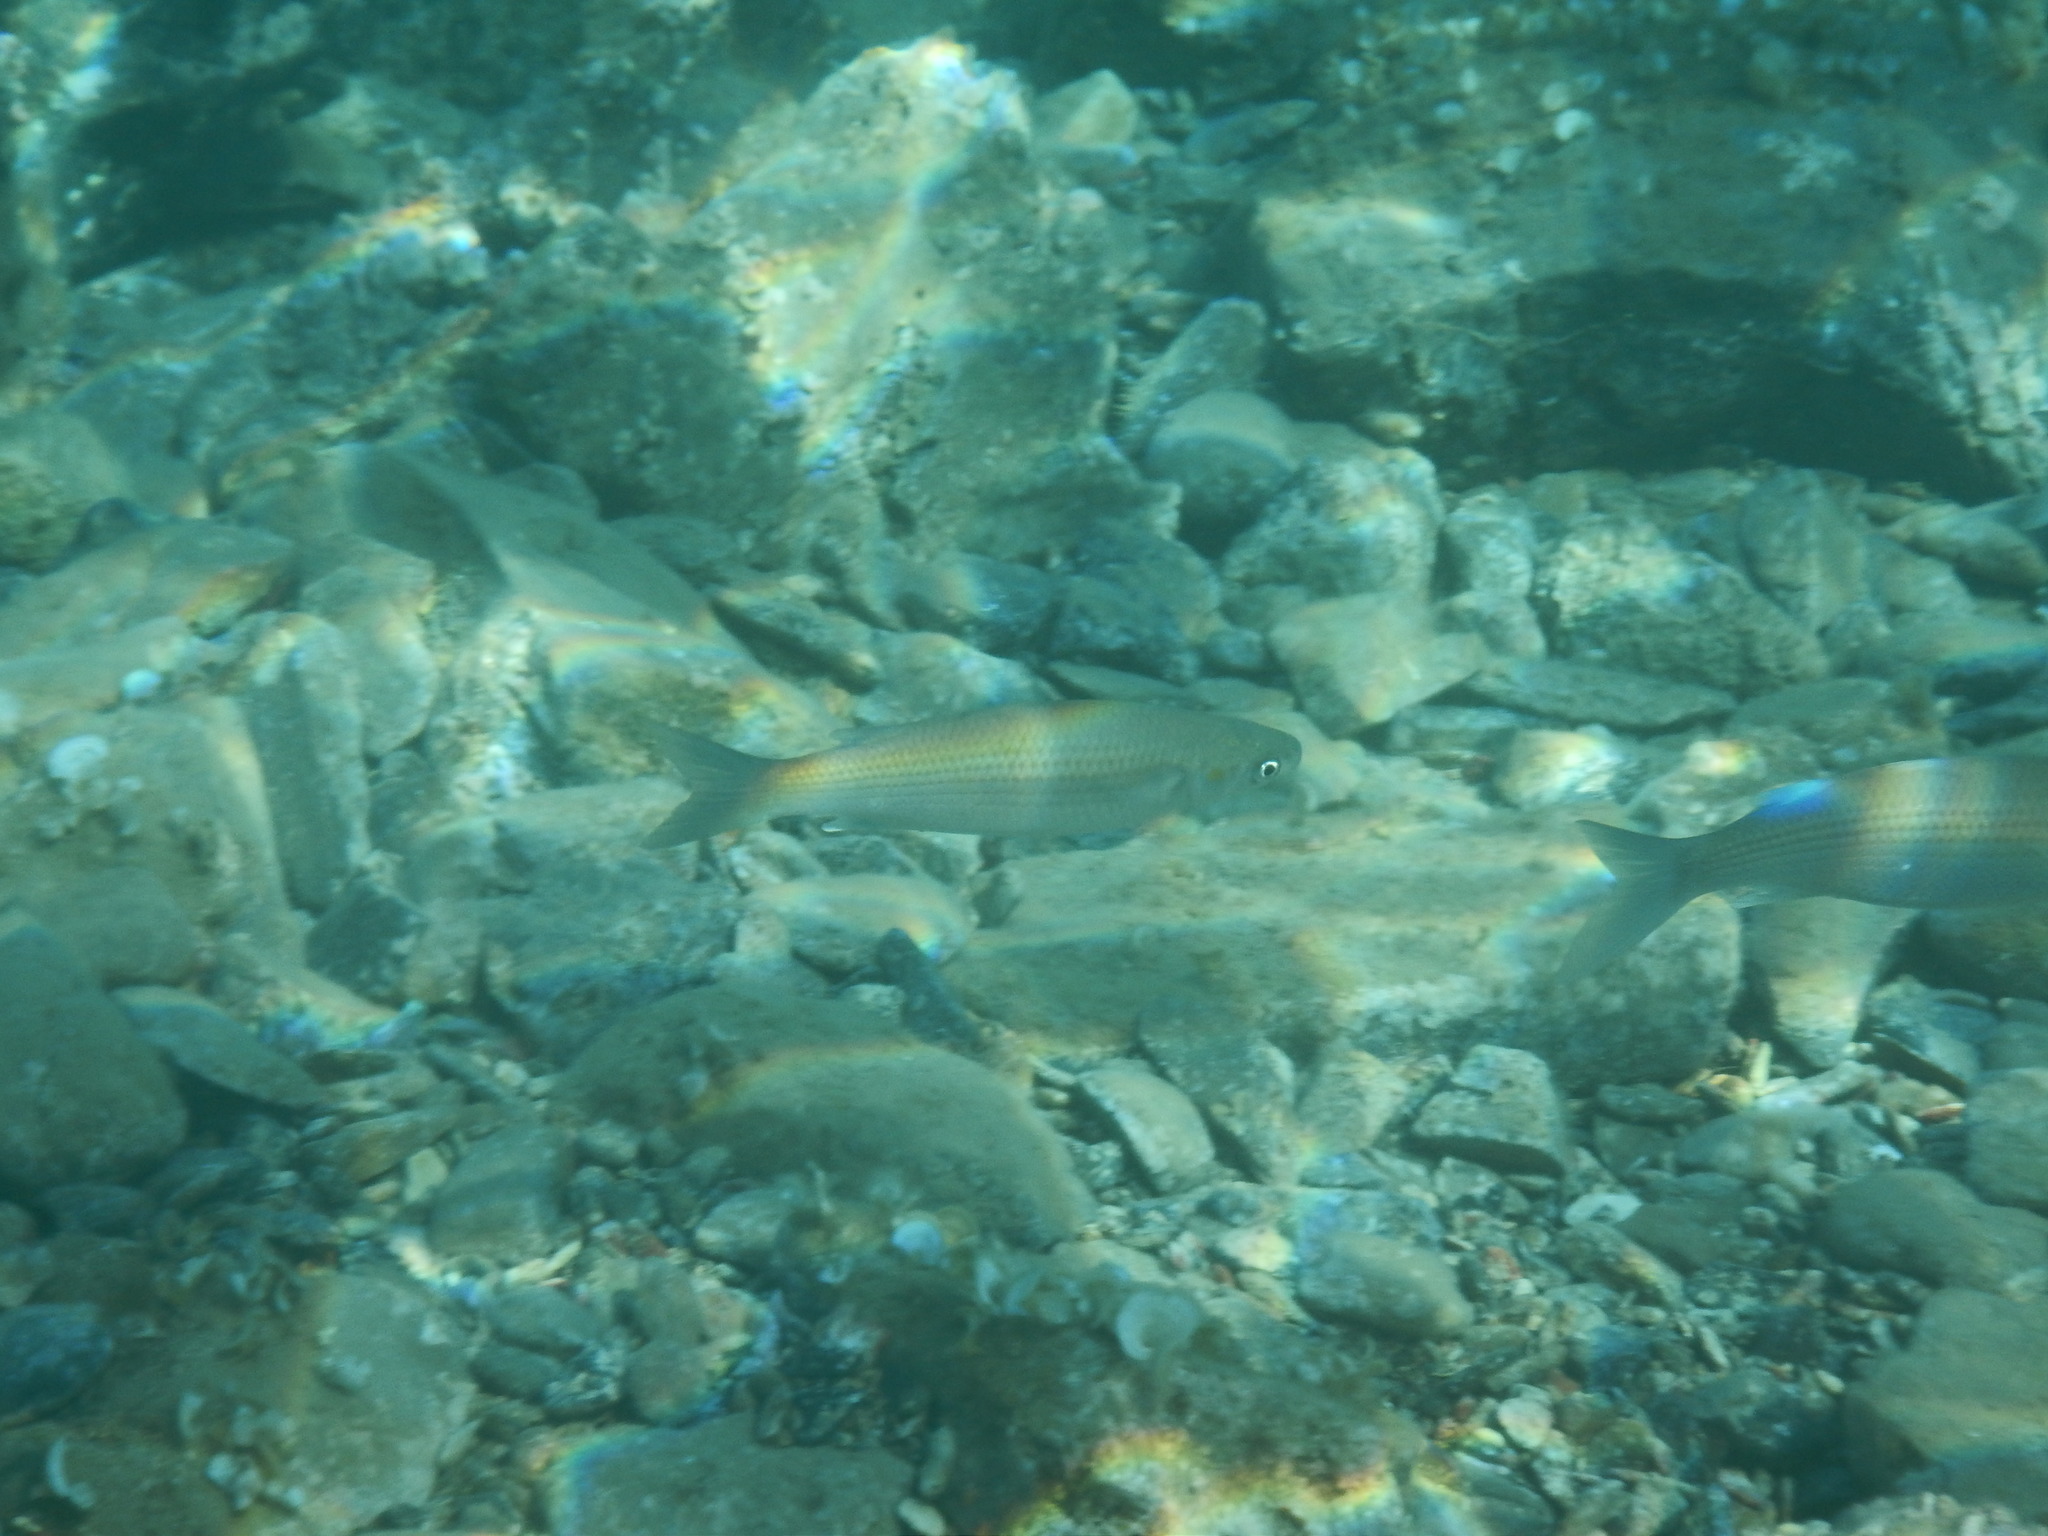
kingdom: Animalia
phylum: Chordata
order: Mugiliformes
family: Mugilidae
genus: Chelon
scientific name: Chelon
